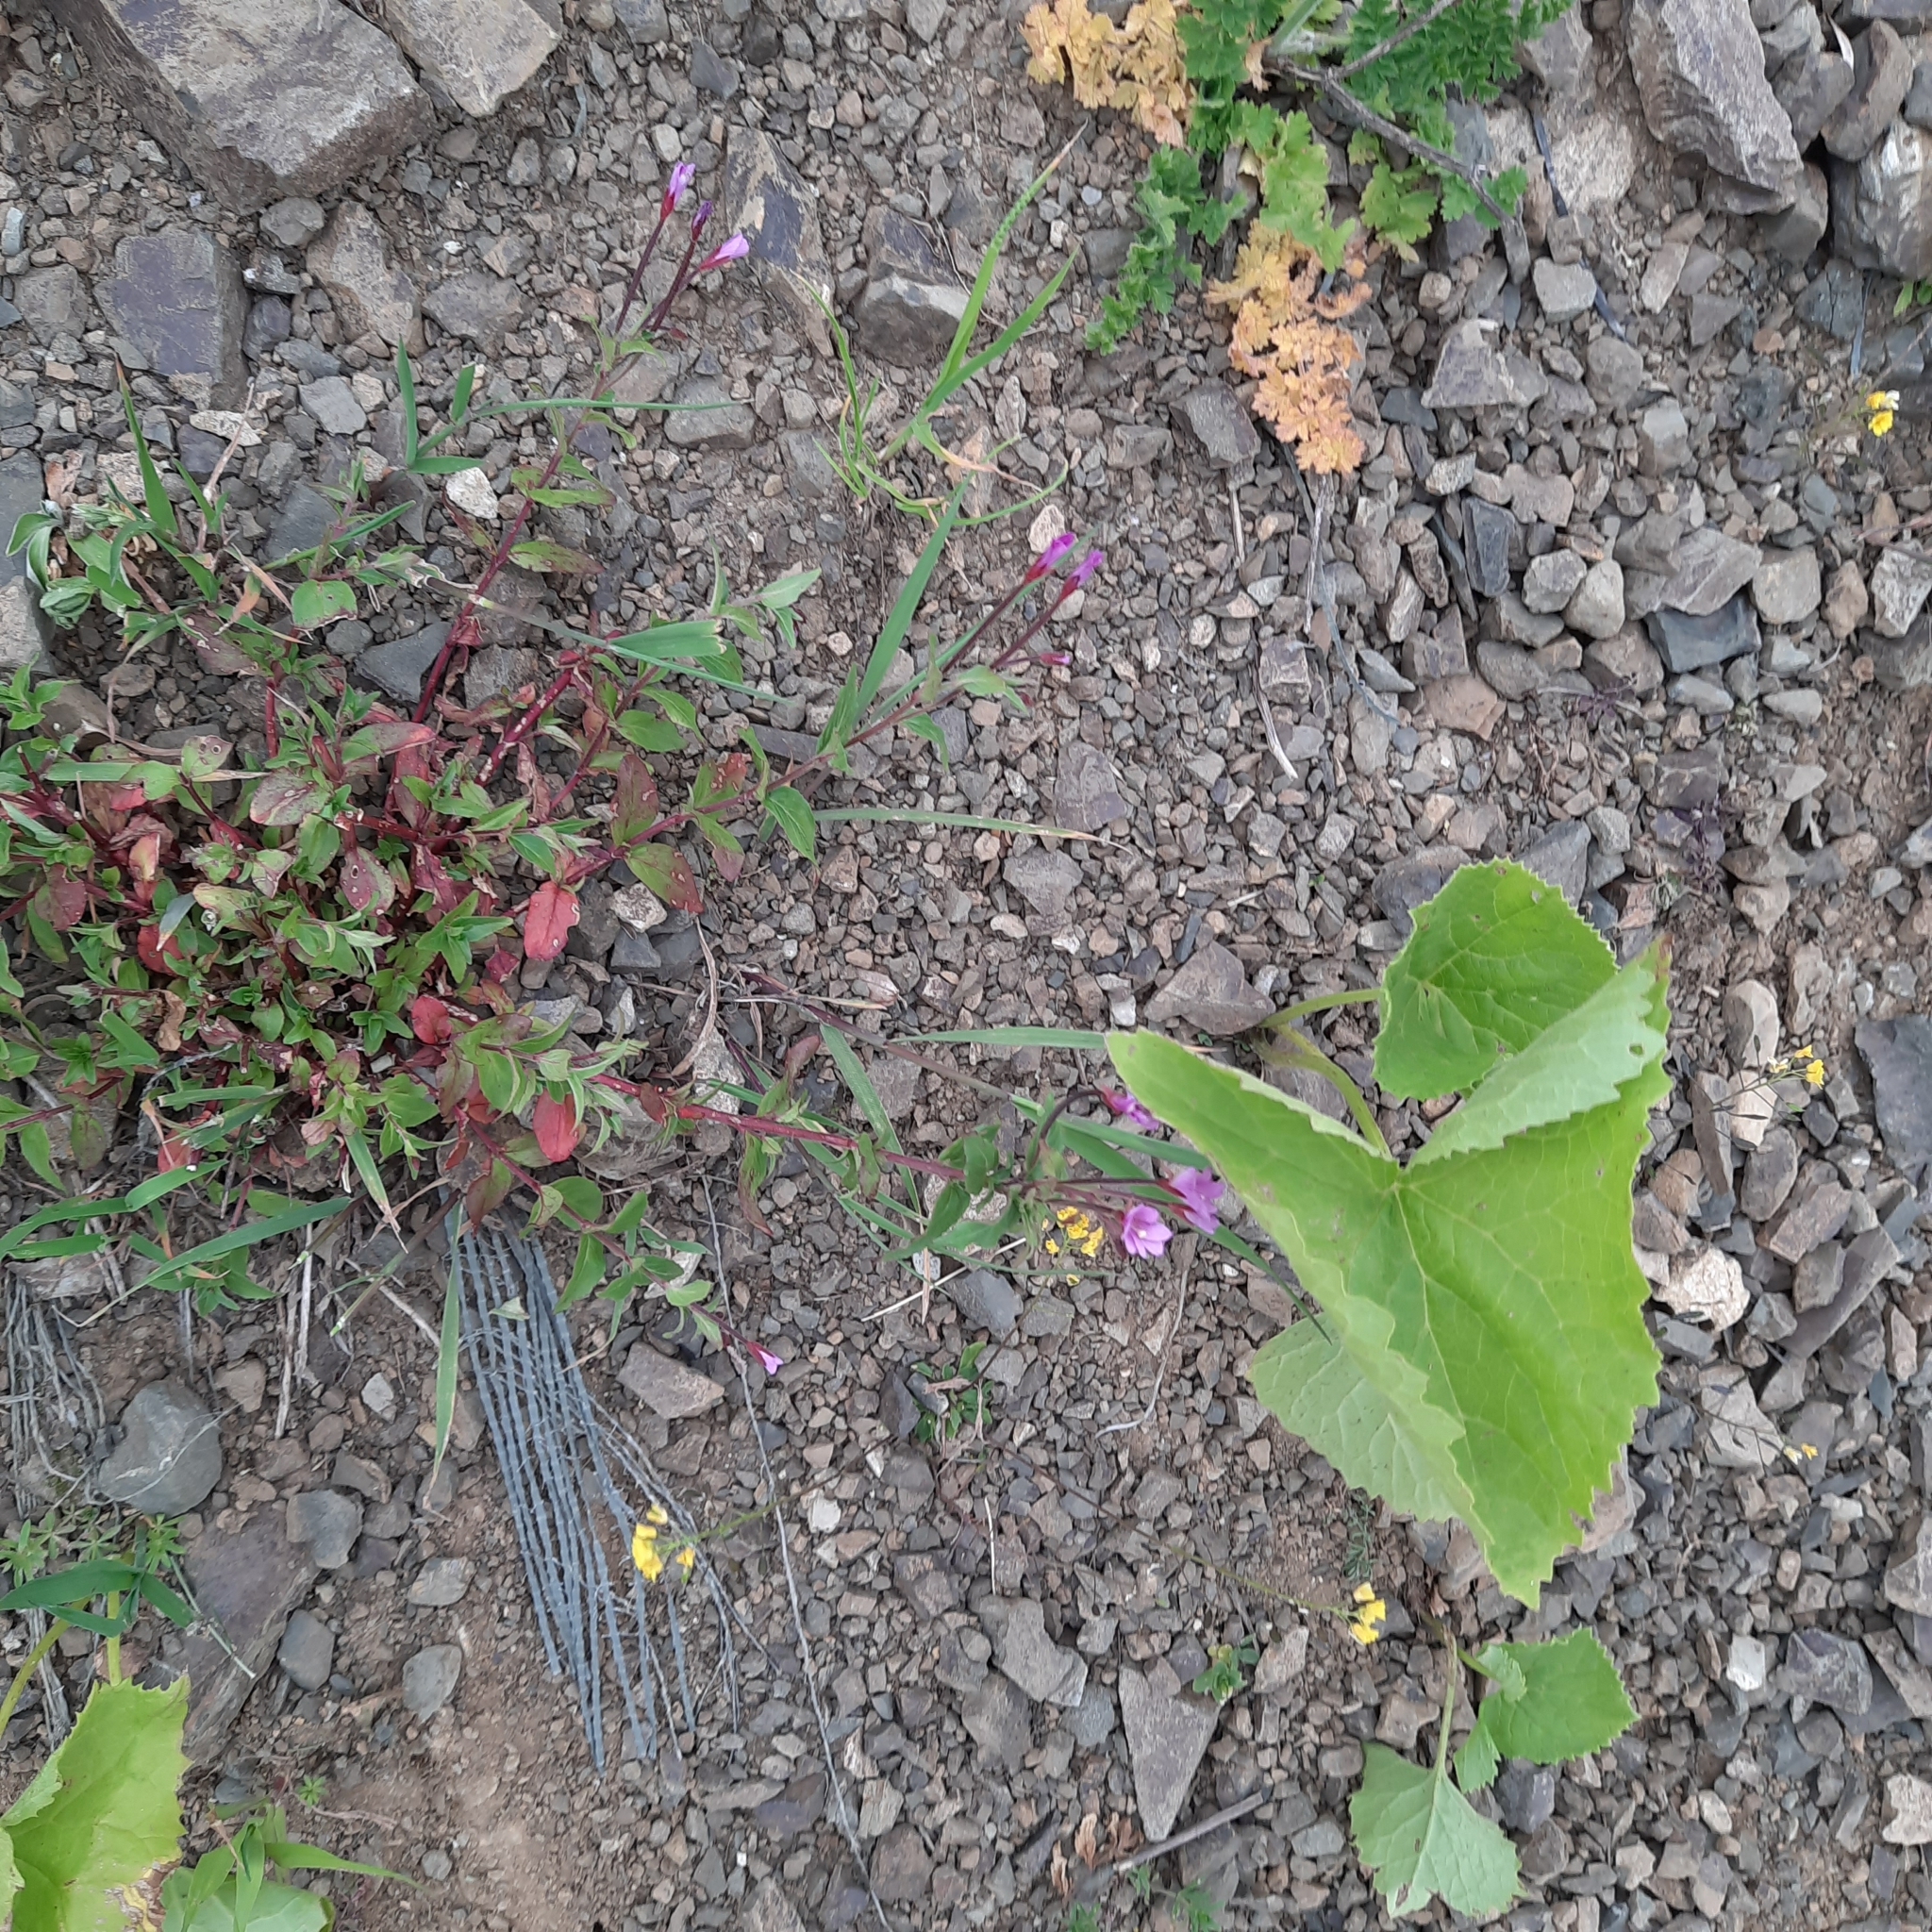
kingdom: Plantae
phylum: Tracheophyta
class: Magnoliopsida
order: Myrtales
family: Onagraceae
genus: Epilobium
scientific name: Epilobium alsinifolium
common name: Chickweed willowherb
